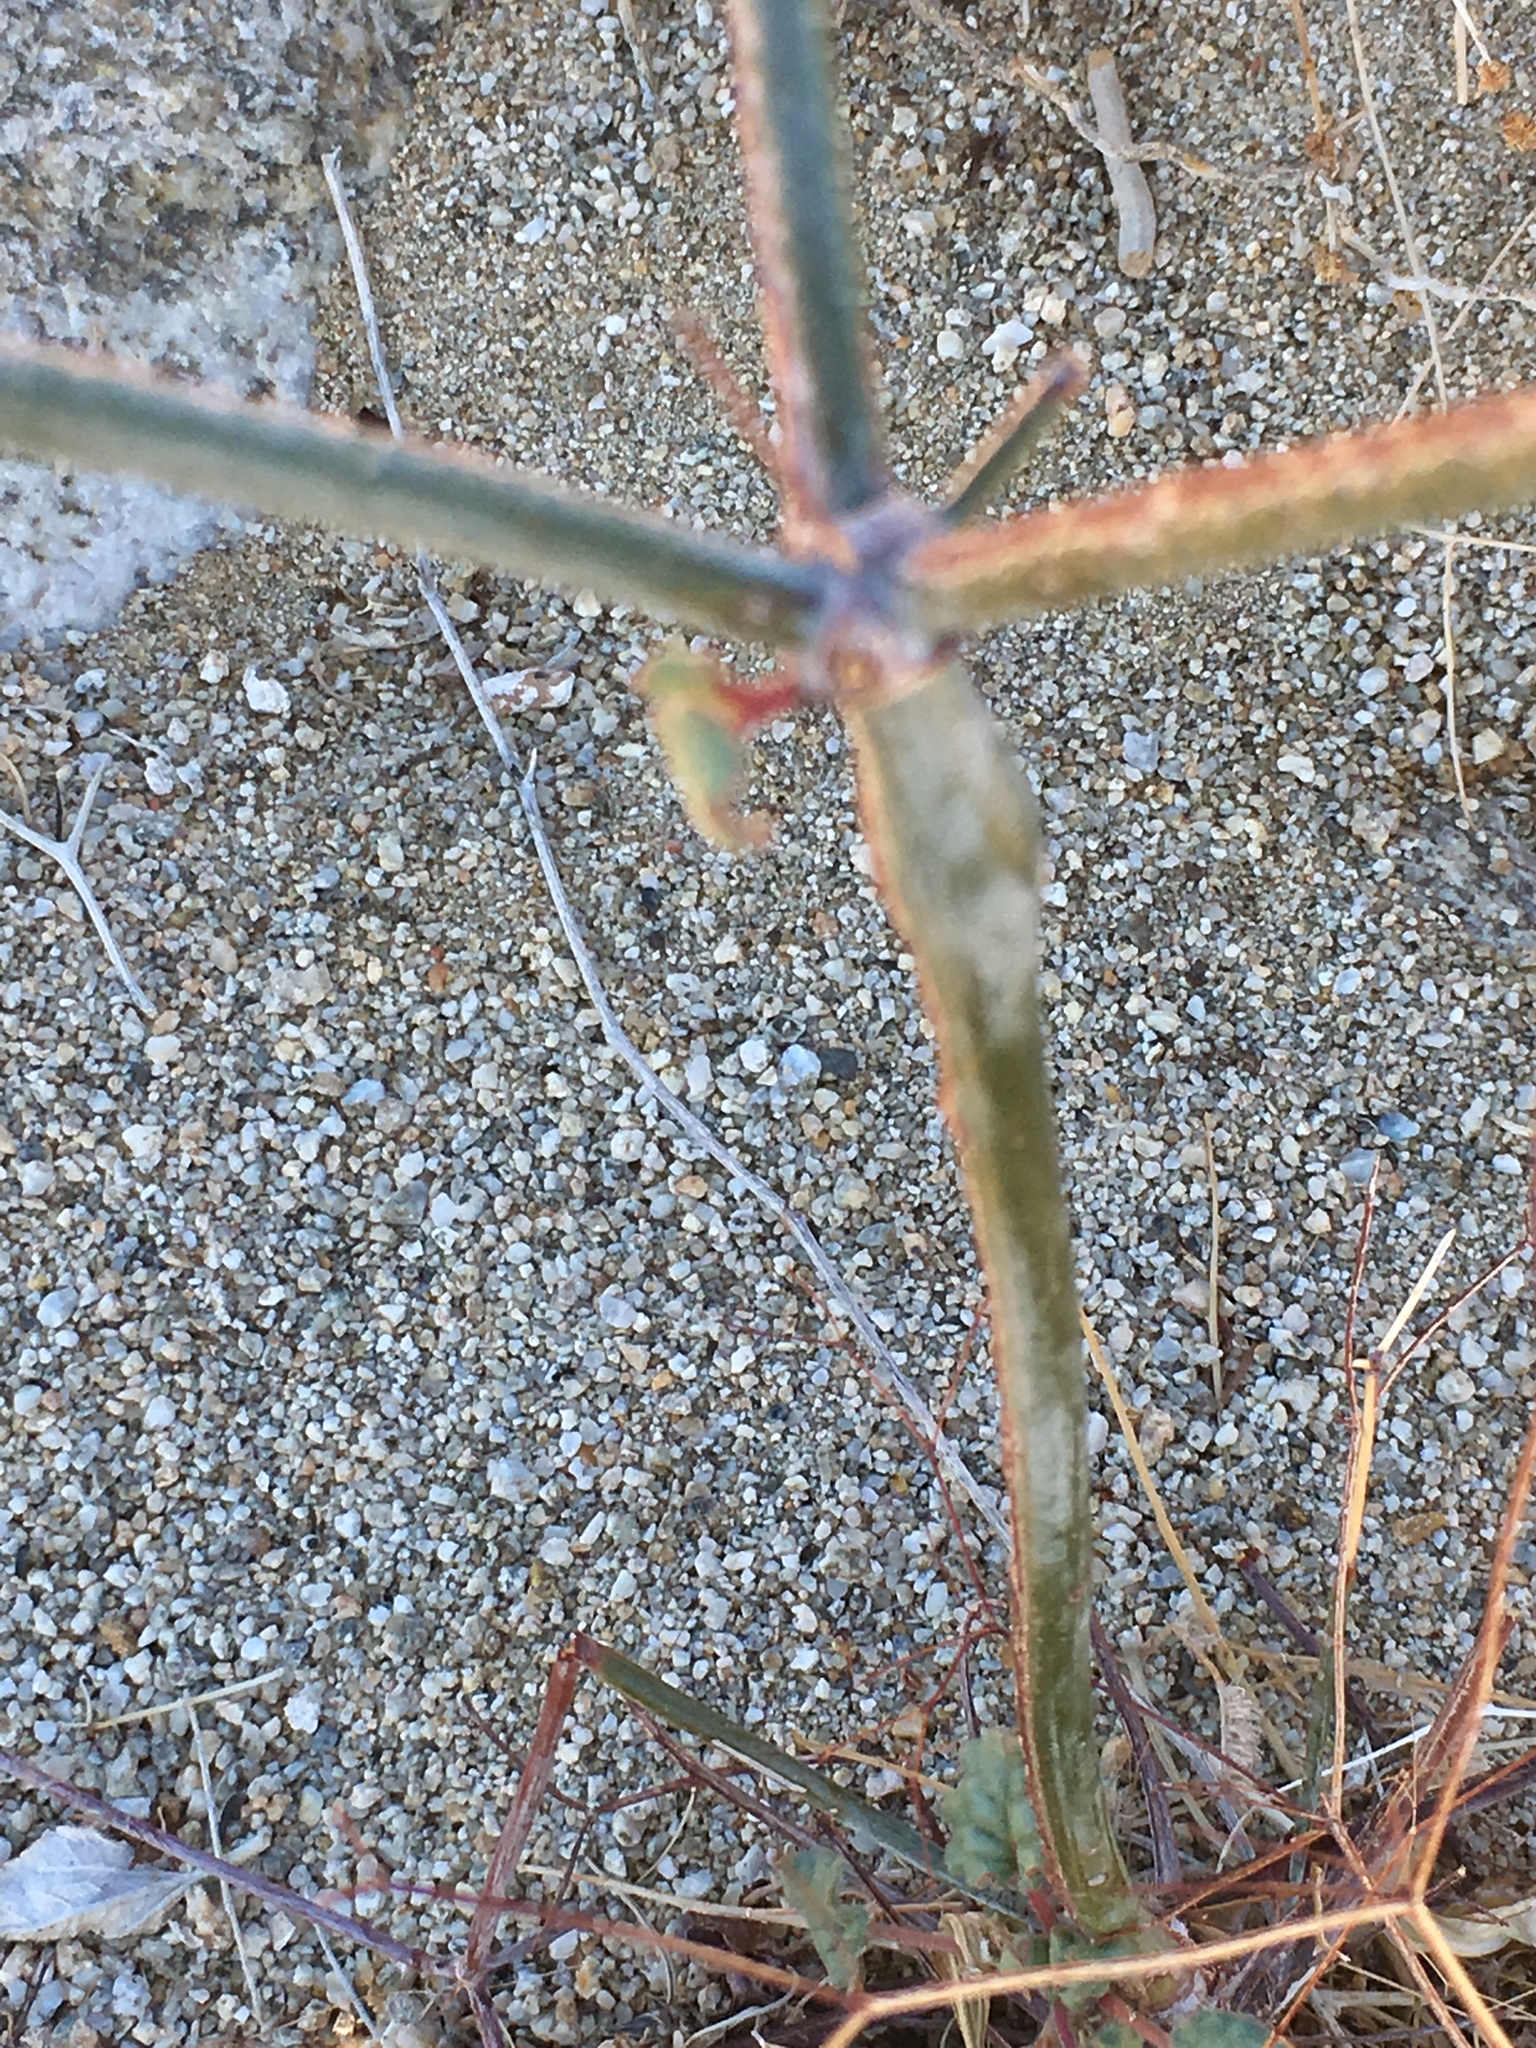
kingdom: Plantae
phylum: Tracheophyta
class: Magnoliopsida
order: Caryophyllales
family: Polygonaceae
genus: Eriogonum
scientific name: Eriogonum inflatum
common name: Desert trumpet
